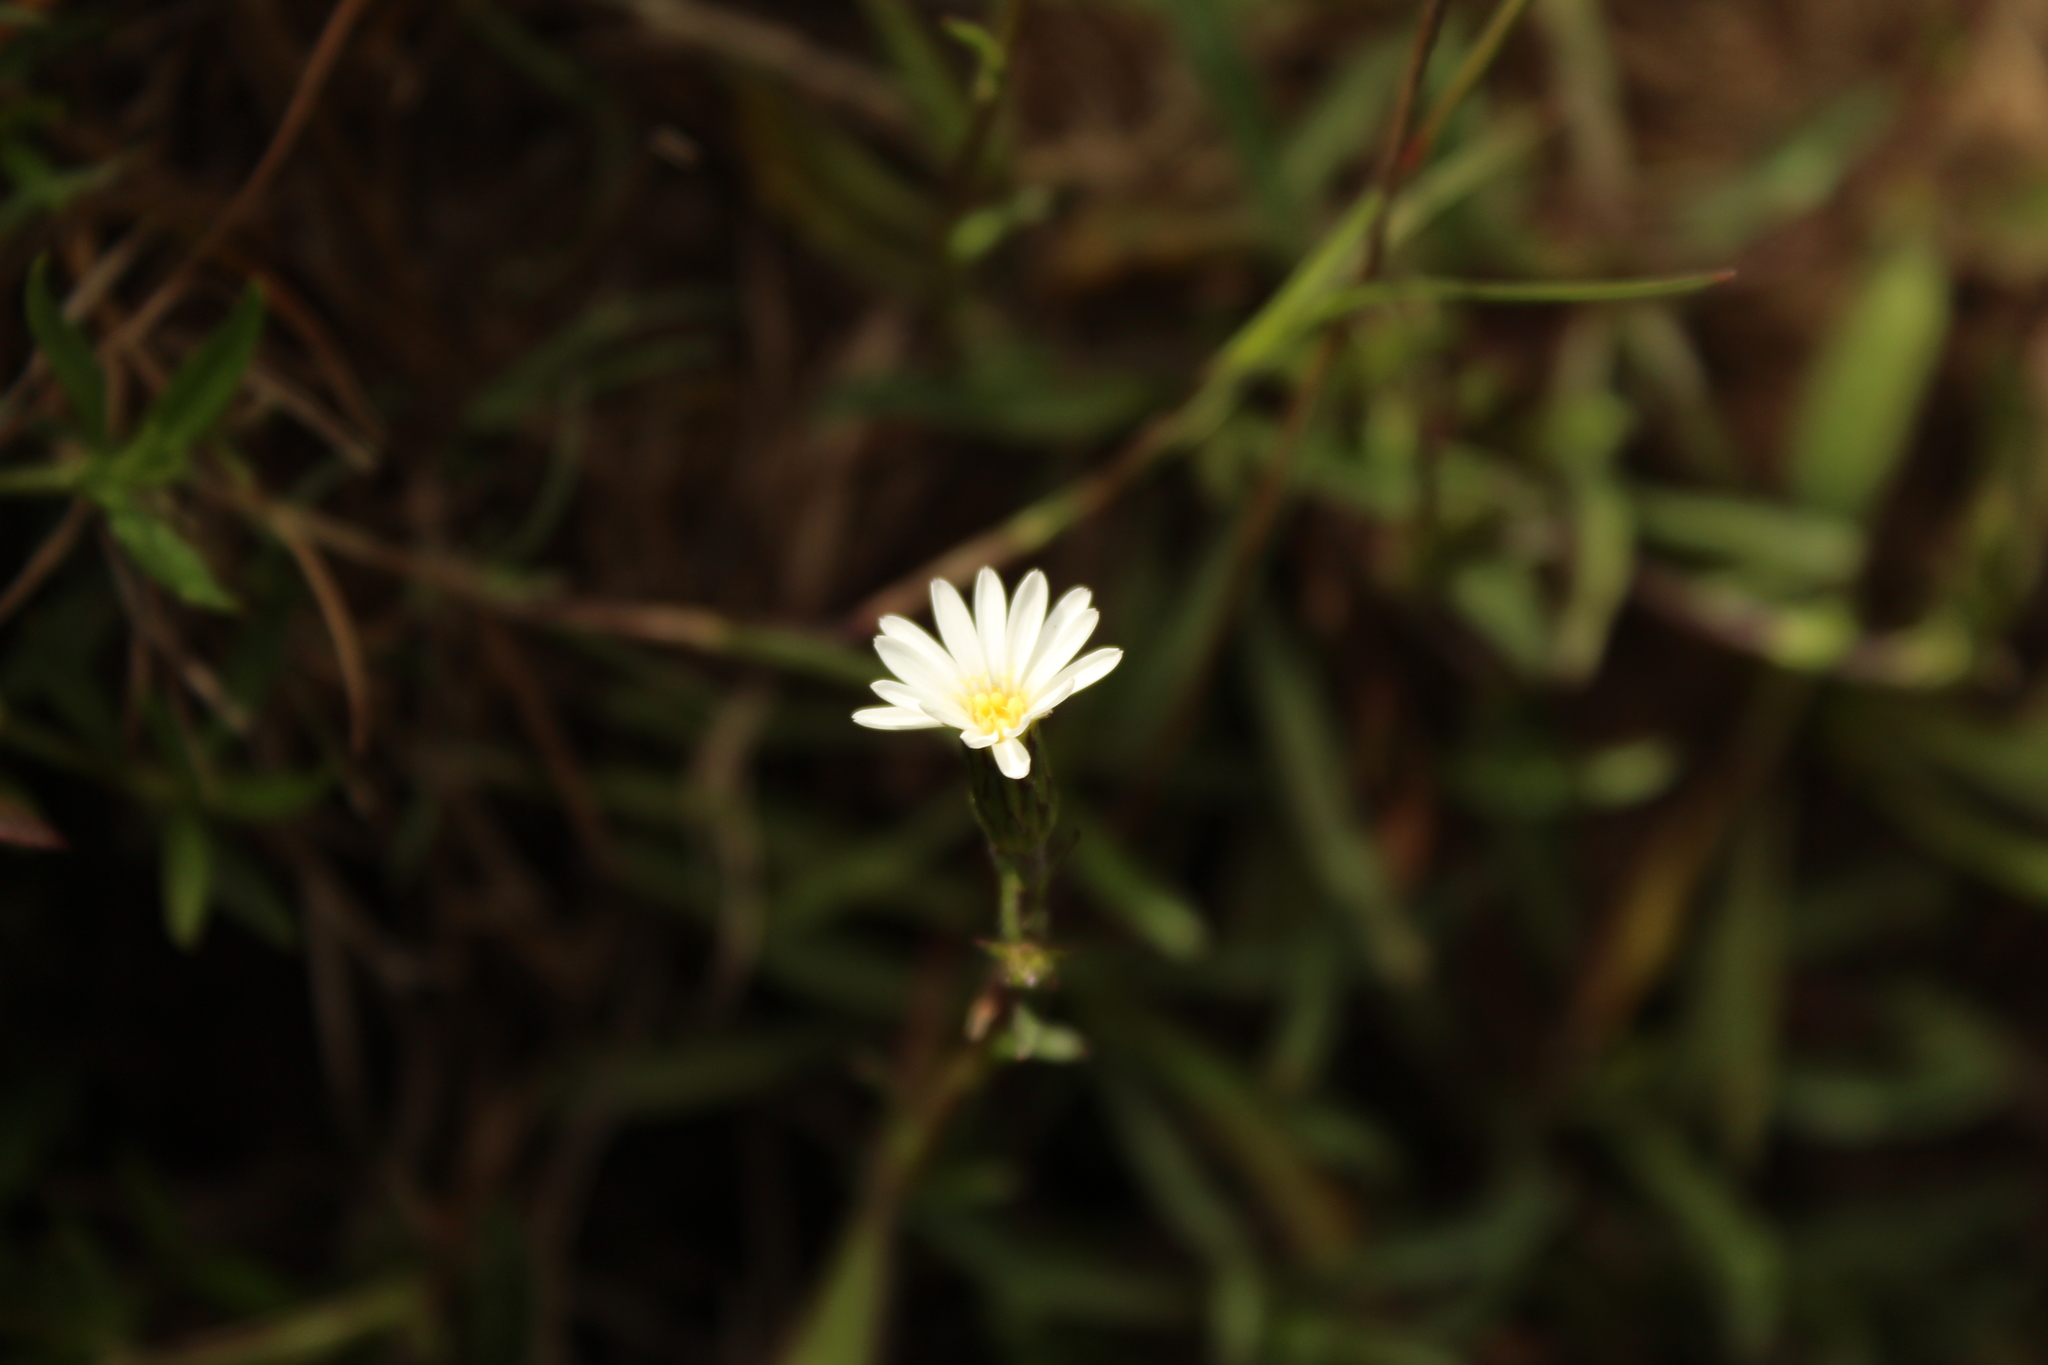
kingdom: Plantae
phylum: Tracheophyta
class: Magnoliopsida
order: Asterales
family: Asteraceae
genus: Noticastrum
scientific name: Noticastrum marginatum
